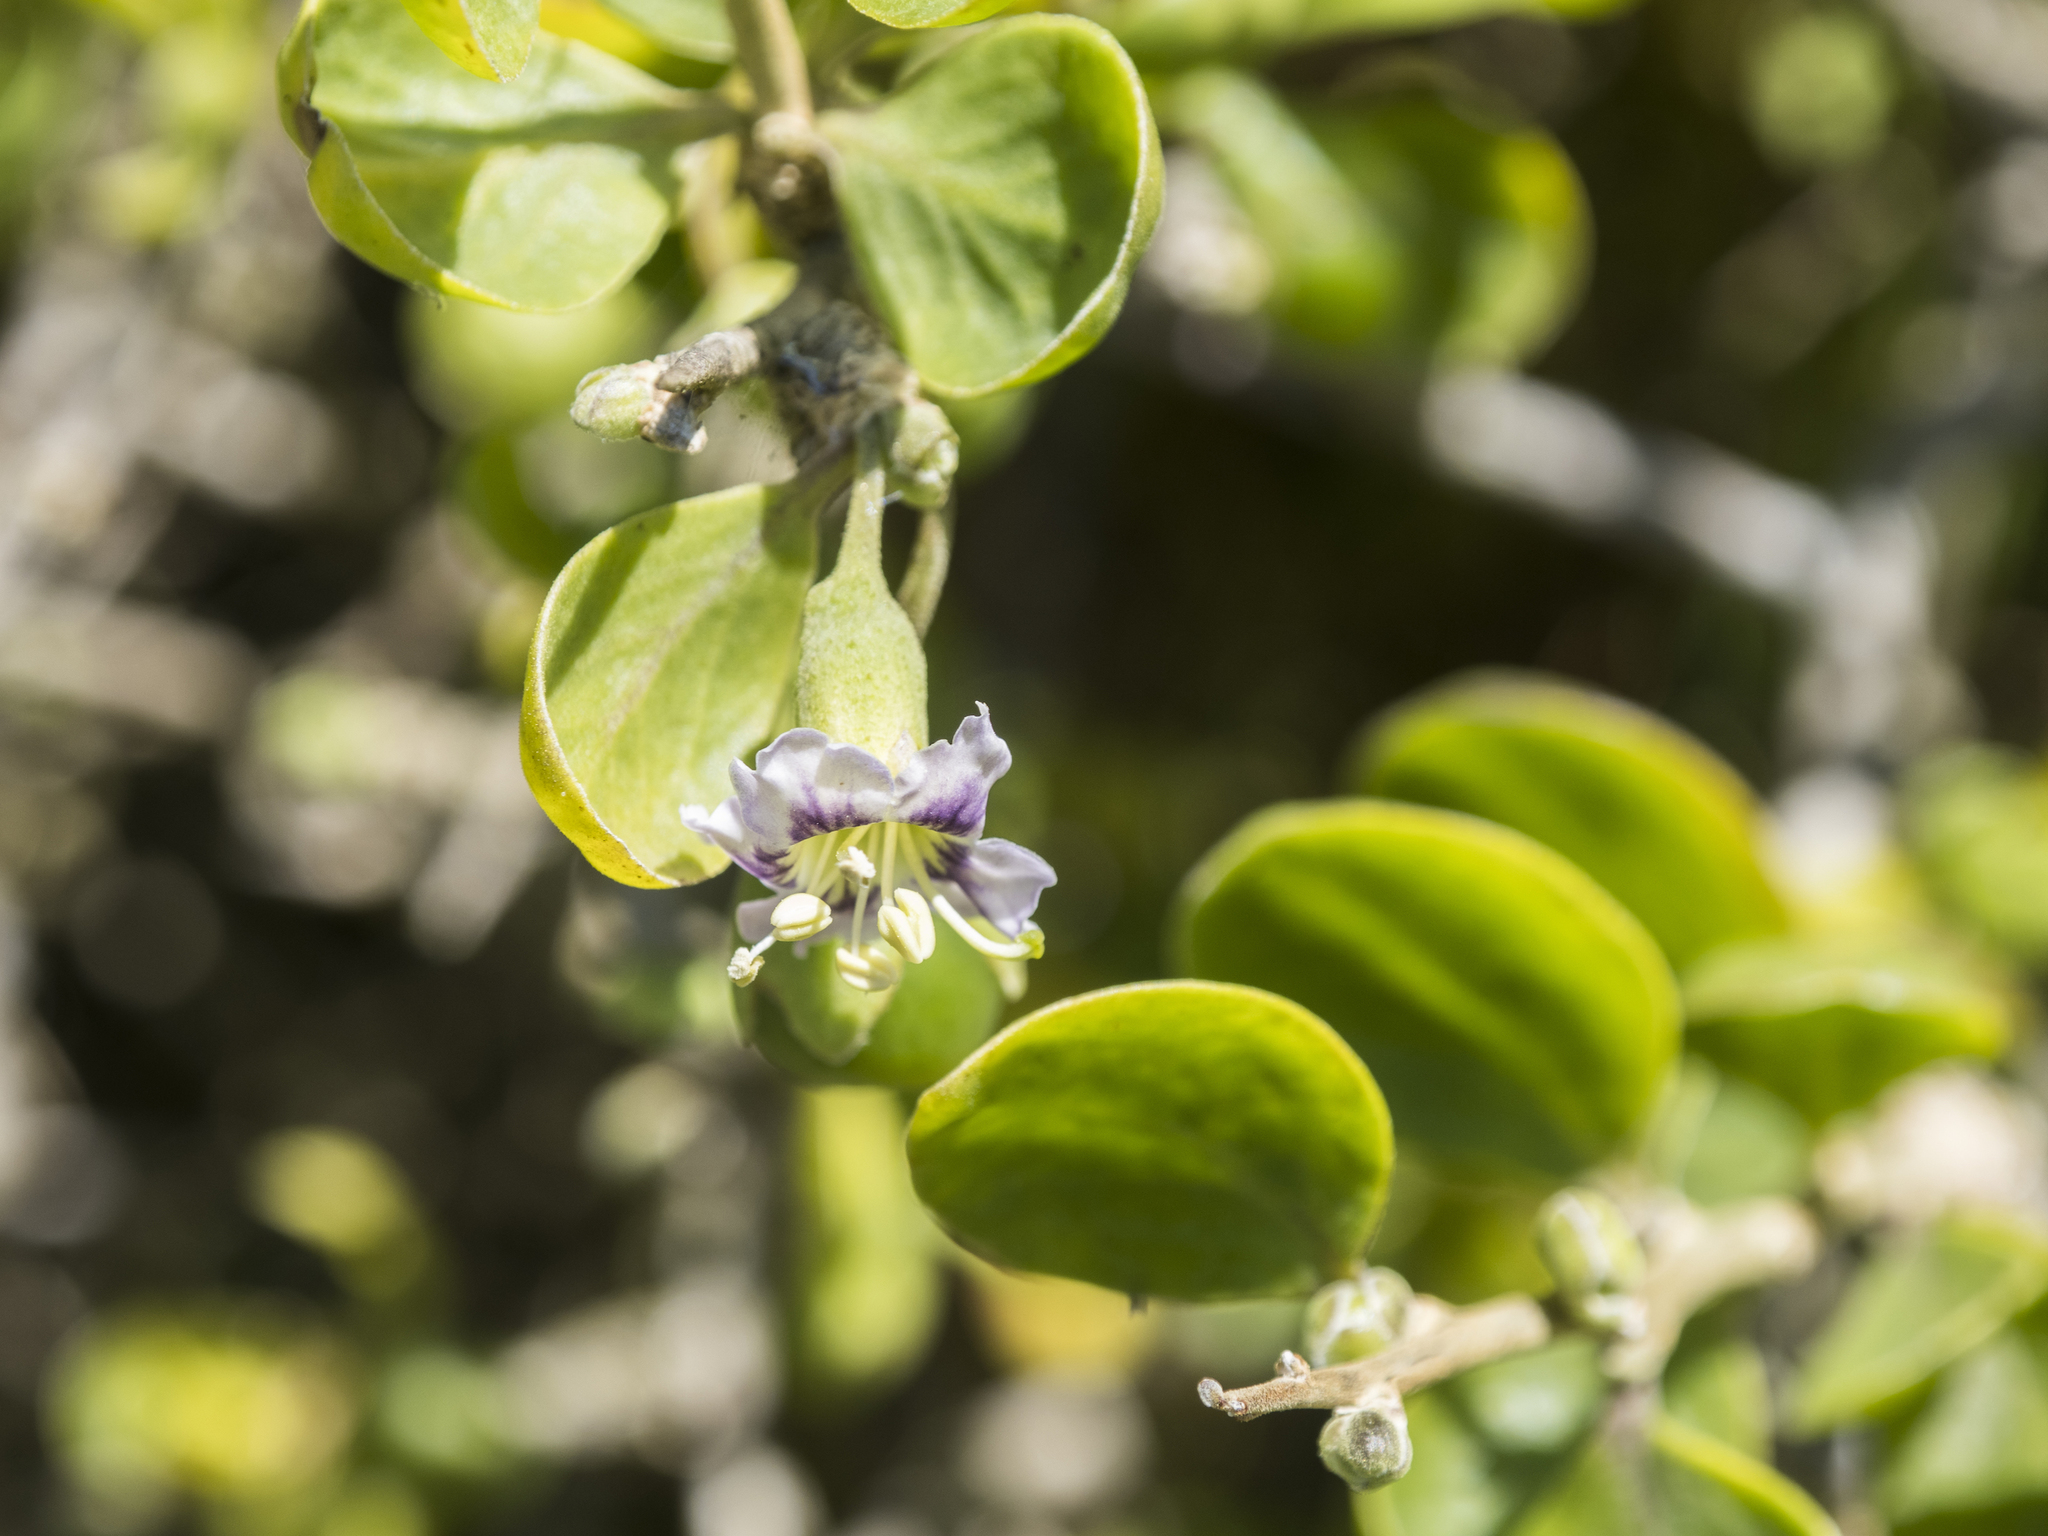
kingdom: Plantae
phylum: Tracheophyta
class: Magnoliopsida
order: Solanales
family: Solanaceae
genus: Lycium
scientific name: Lycium ferocissimum
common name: African boxthorn
